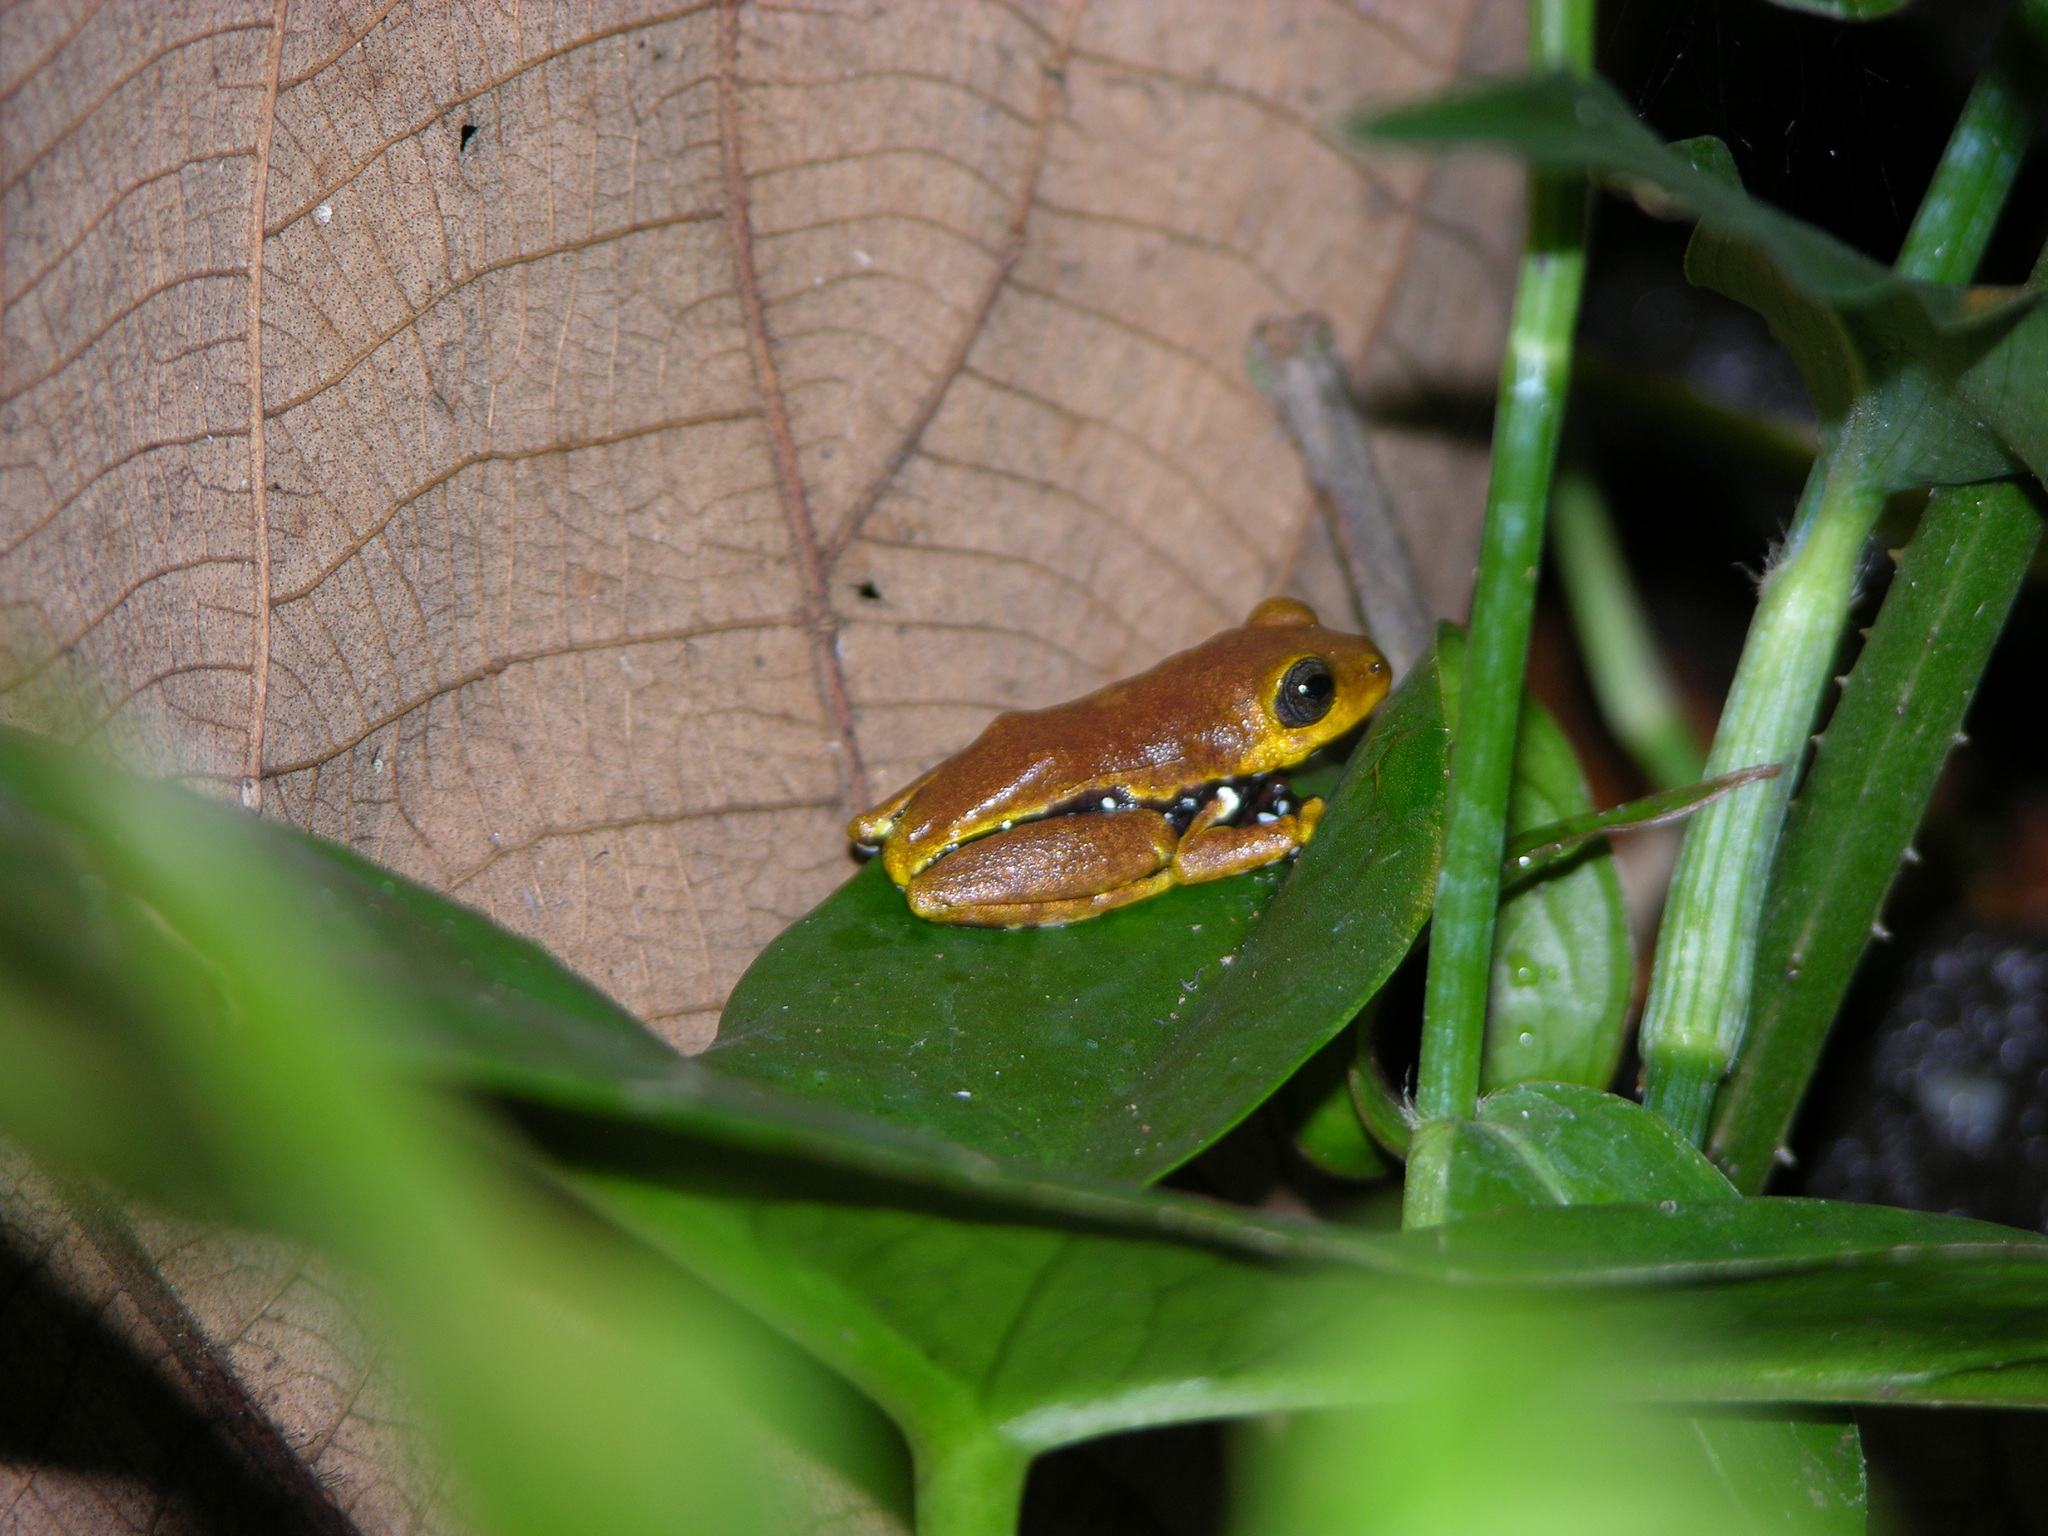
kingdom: Animalia
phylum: Chordata
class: Amphibia
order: Anura
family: Hyperoliidae
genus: Hyperolius
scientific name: Hyperolius pardalis
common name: Leopard reed frog
